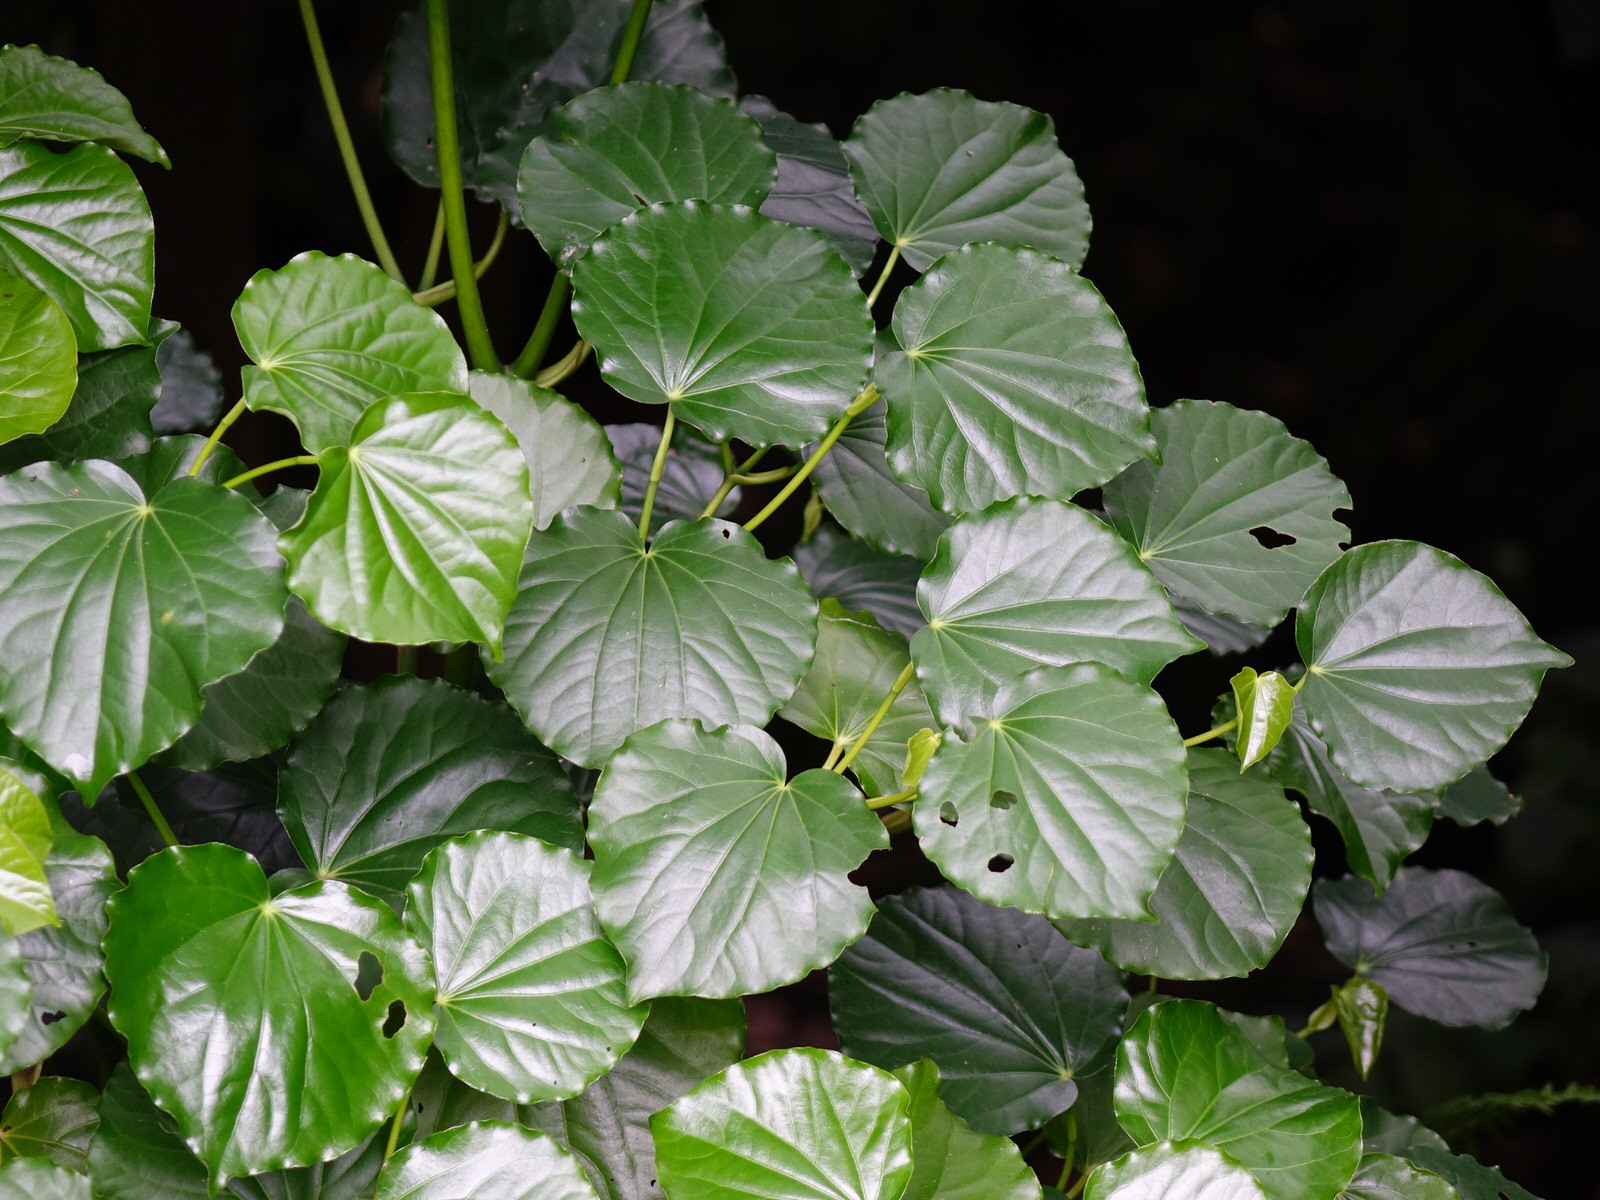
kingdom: Plantae
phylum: Tracheophyta
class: Magnoliopsida
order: Piperales
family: Piperaceae
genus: Macropiper
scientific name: Macropiper excelsum
